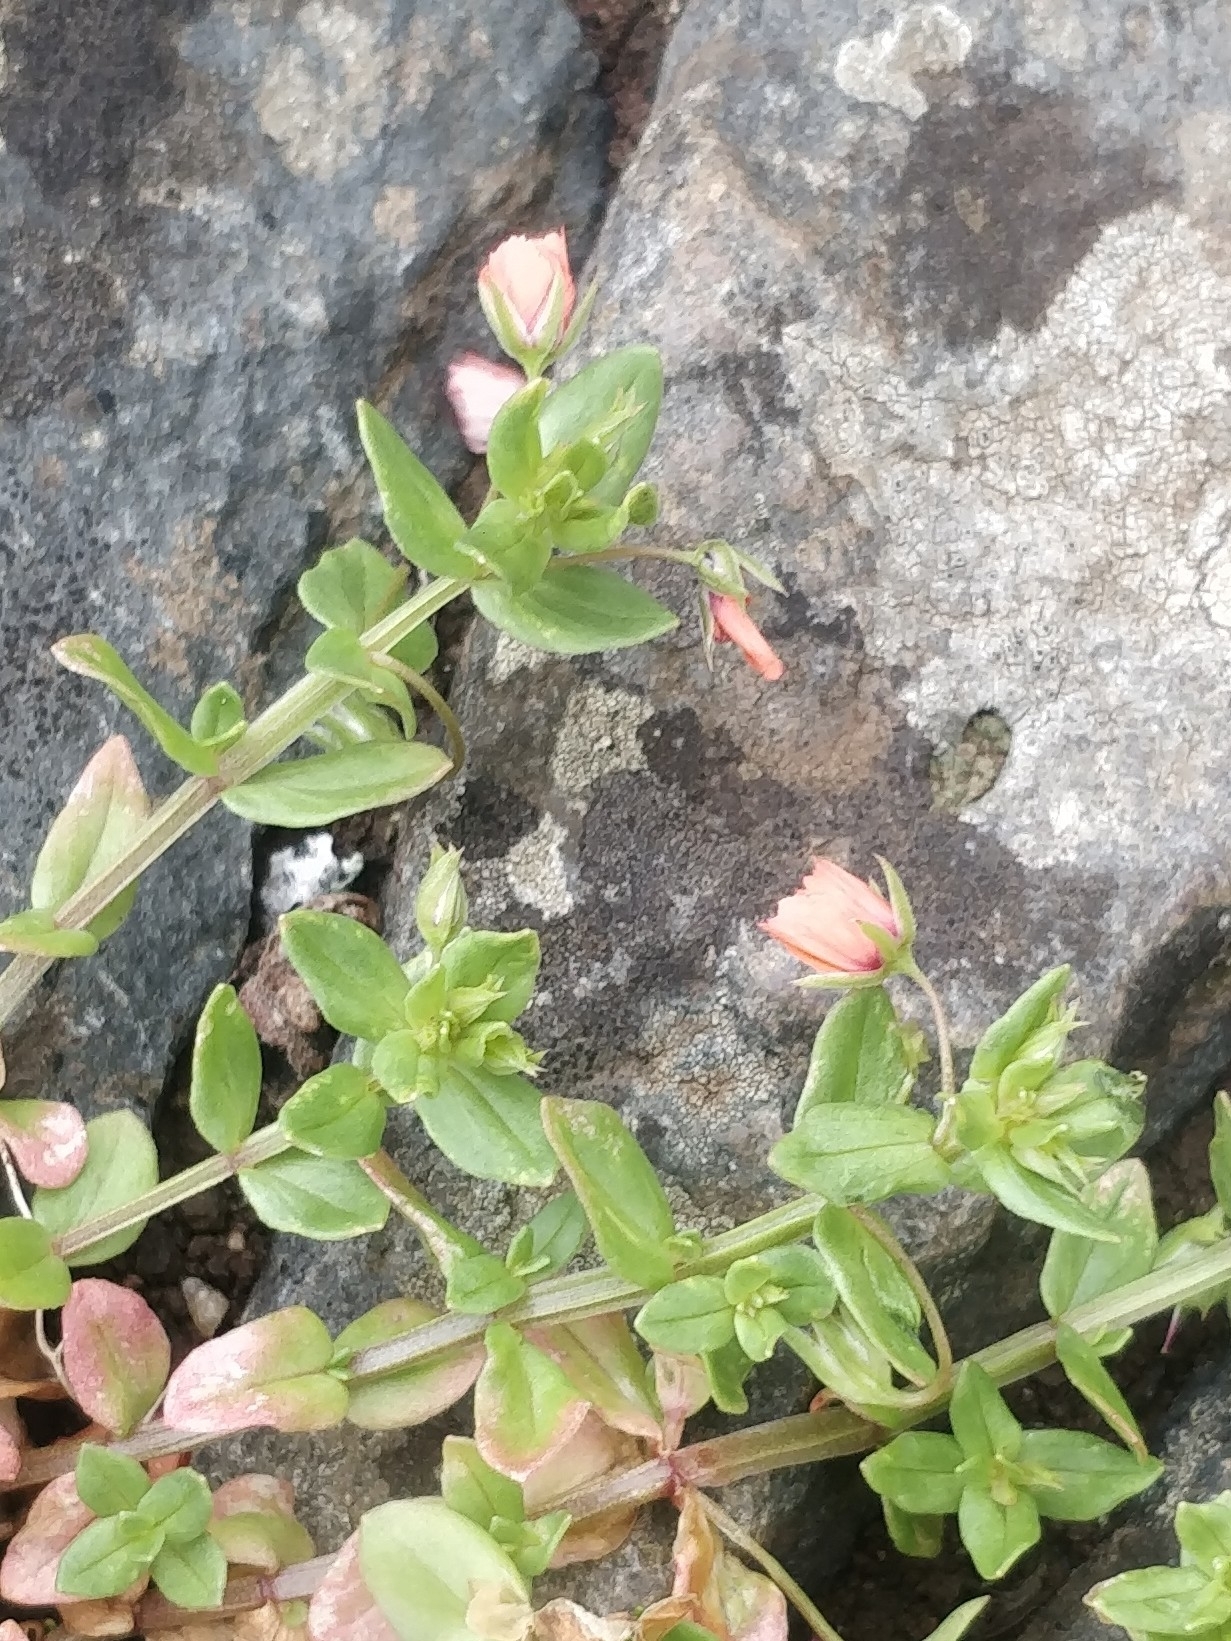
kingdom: Plantae
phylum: Tracheophyta
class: Magnoliopsida
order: Ericales
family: Primulaceae
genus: Lysimachia
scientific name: Lysimachia arvensis
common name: Scarlet pimpernel
